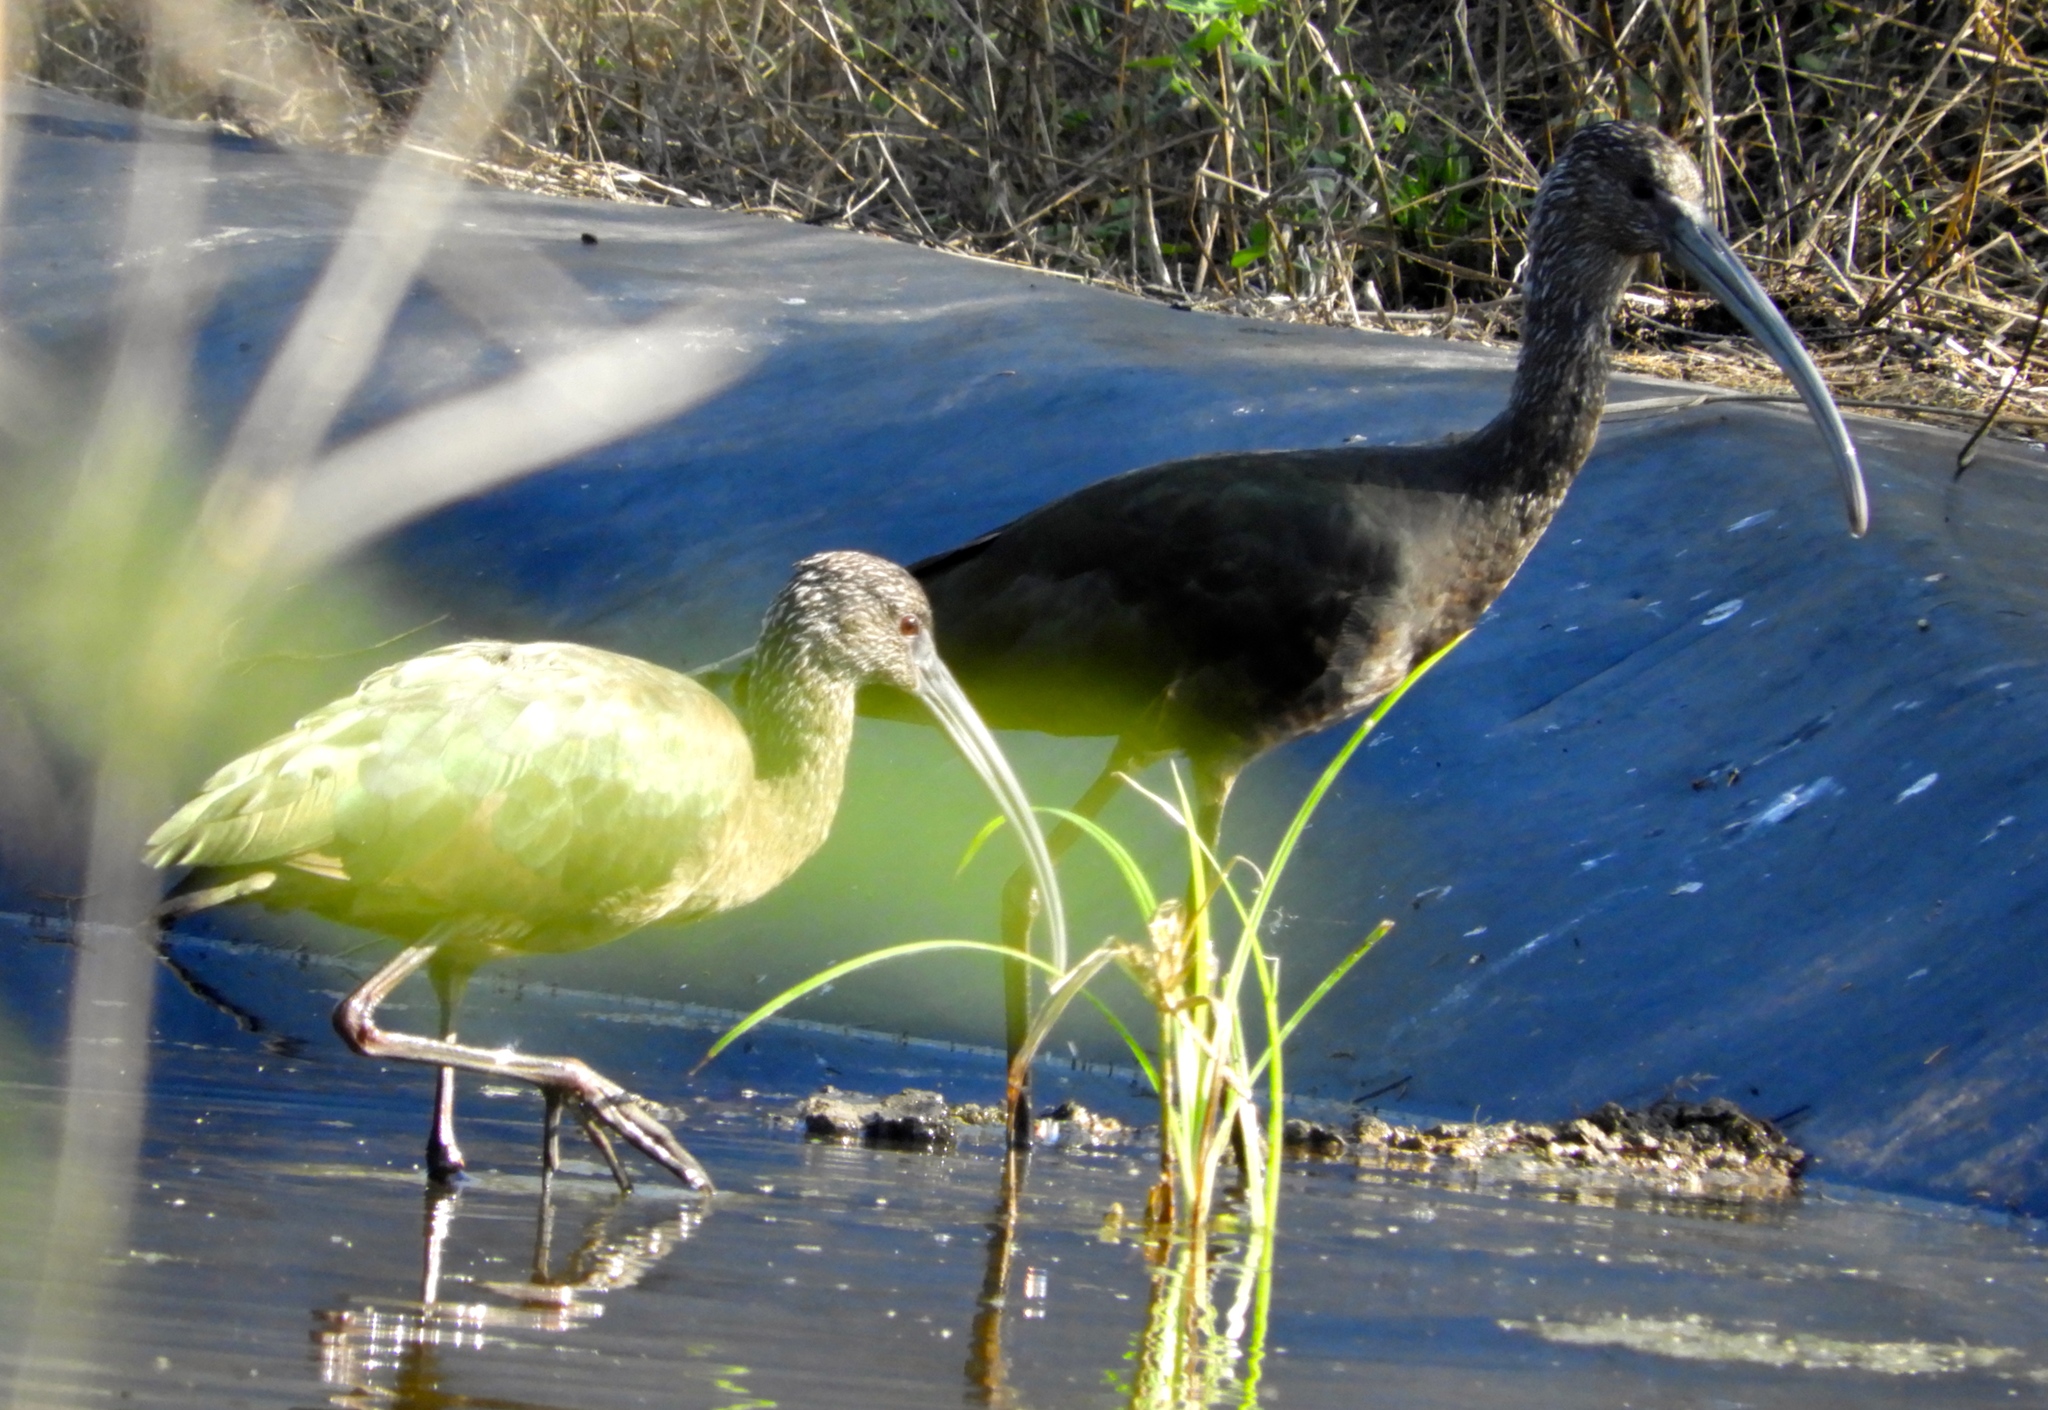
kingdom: Animalia
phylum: Chordata
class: Aves
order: Pelecaniformes
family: Threskiornithidae
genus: Plegadis
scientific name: Plegadis chihi
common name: White-faced ibis
